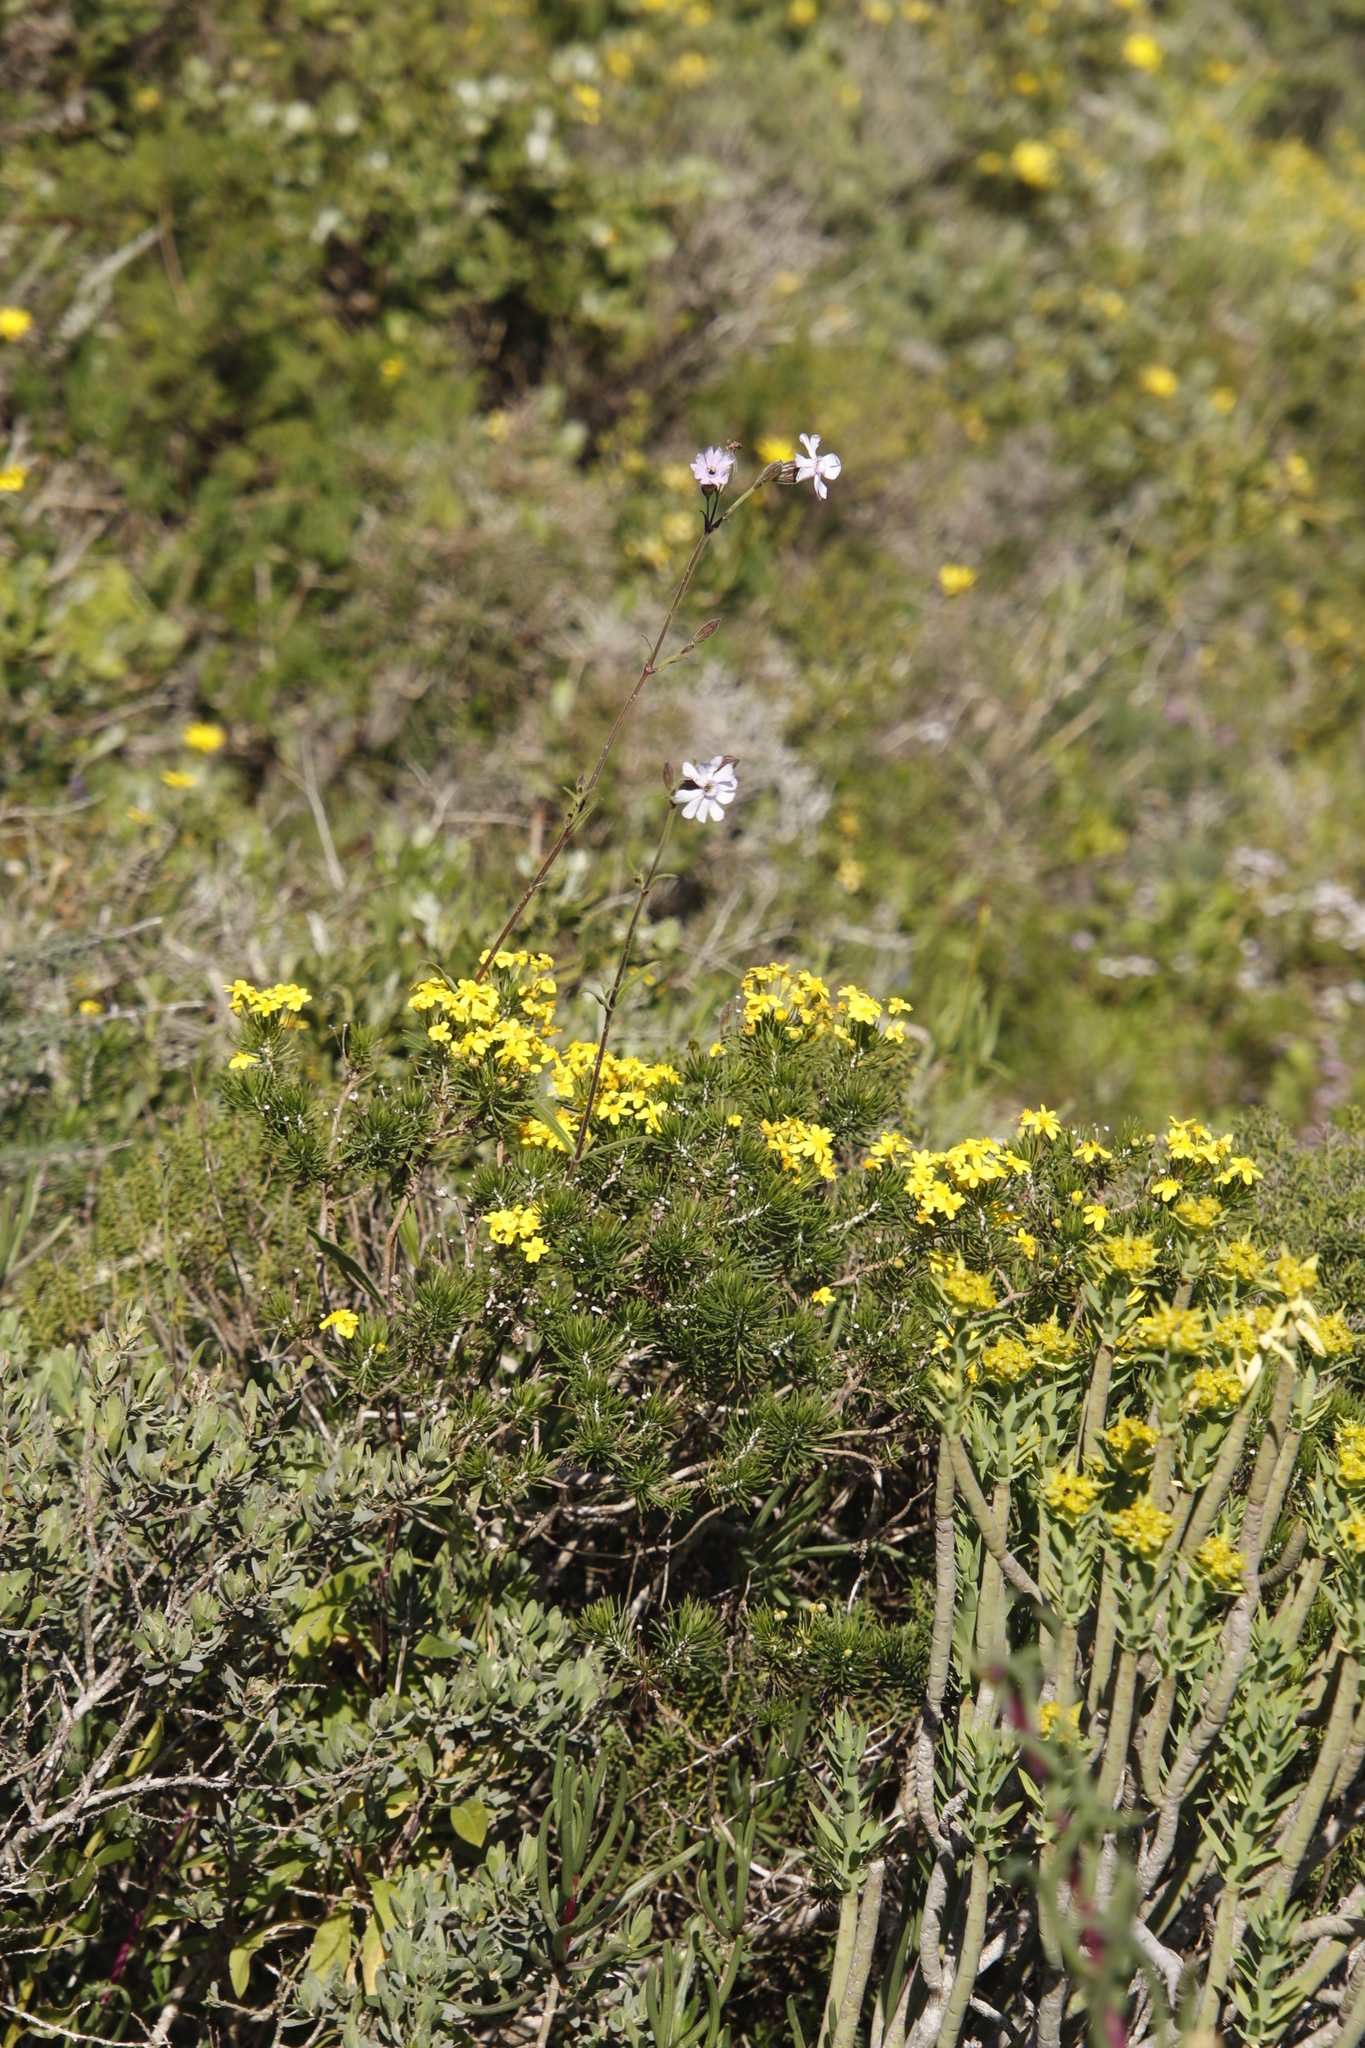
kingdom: Plantae
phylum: Tracheophyta
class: Magnoliopsida
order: Caryophyllales
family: Caryophyllaceae
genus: Silene
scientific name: Silene rigens
